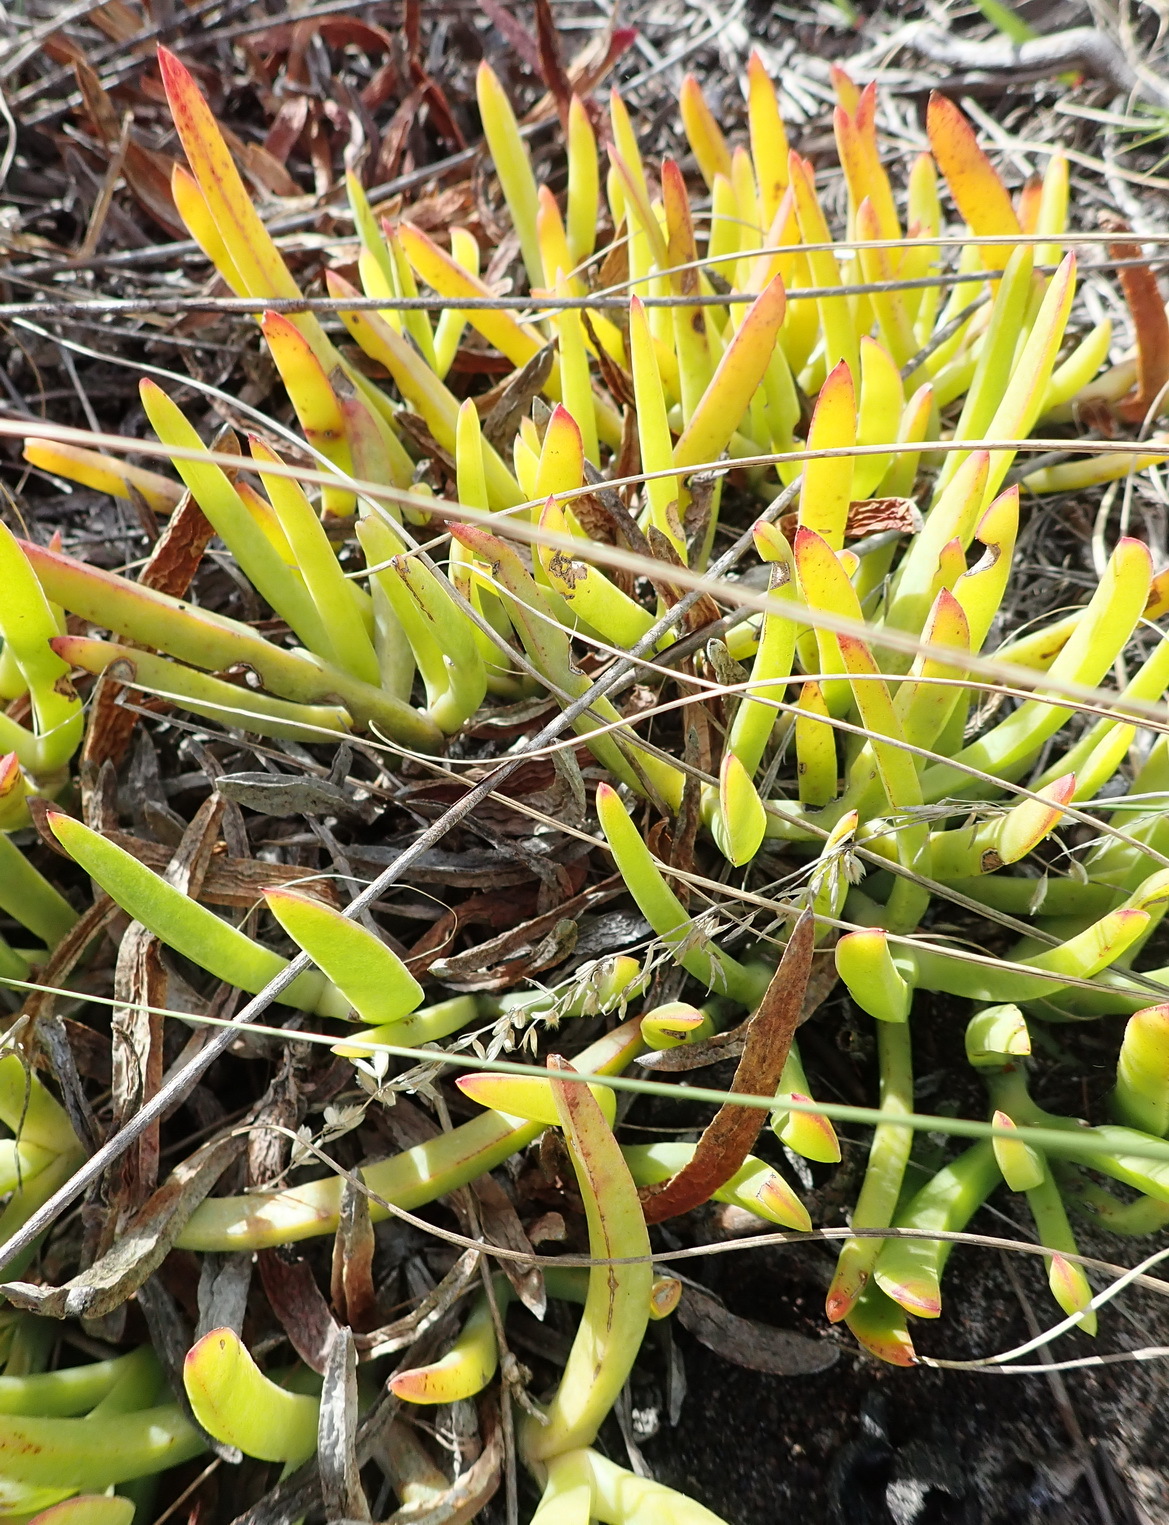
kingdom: Plantae
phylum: Tracheophyta
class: Magnoliopsida
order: Caryophyllales
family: Aizoaceae
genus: Carpobrotus
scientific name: Carpobrotus muirii
